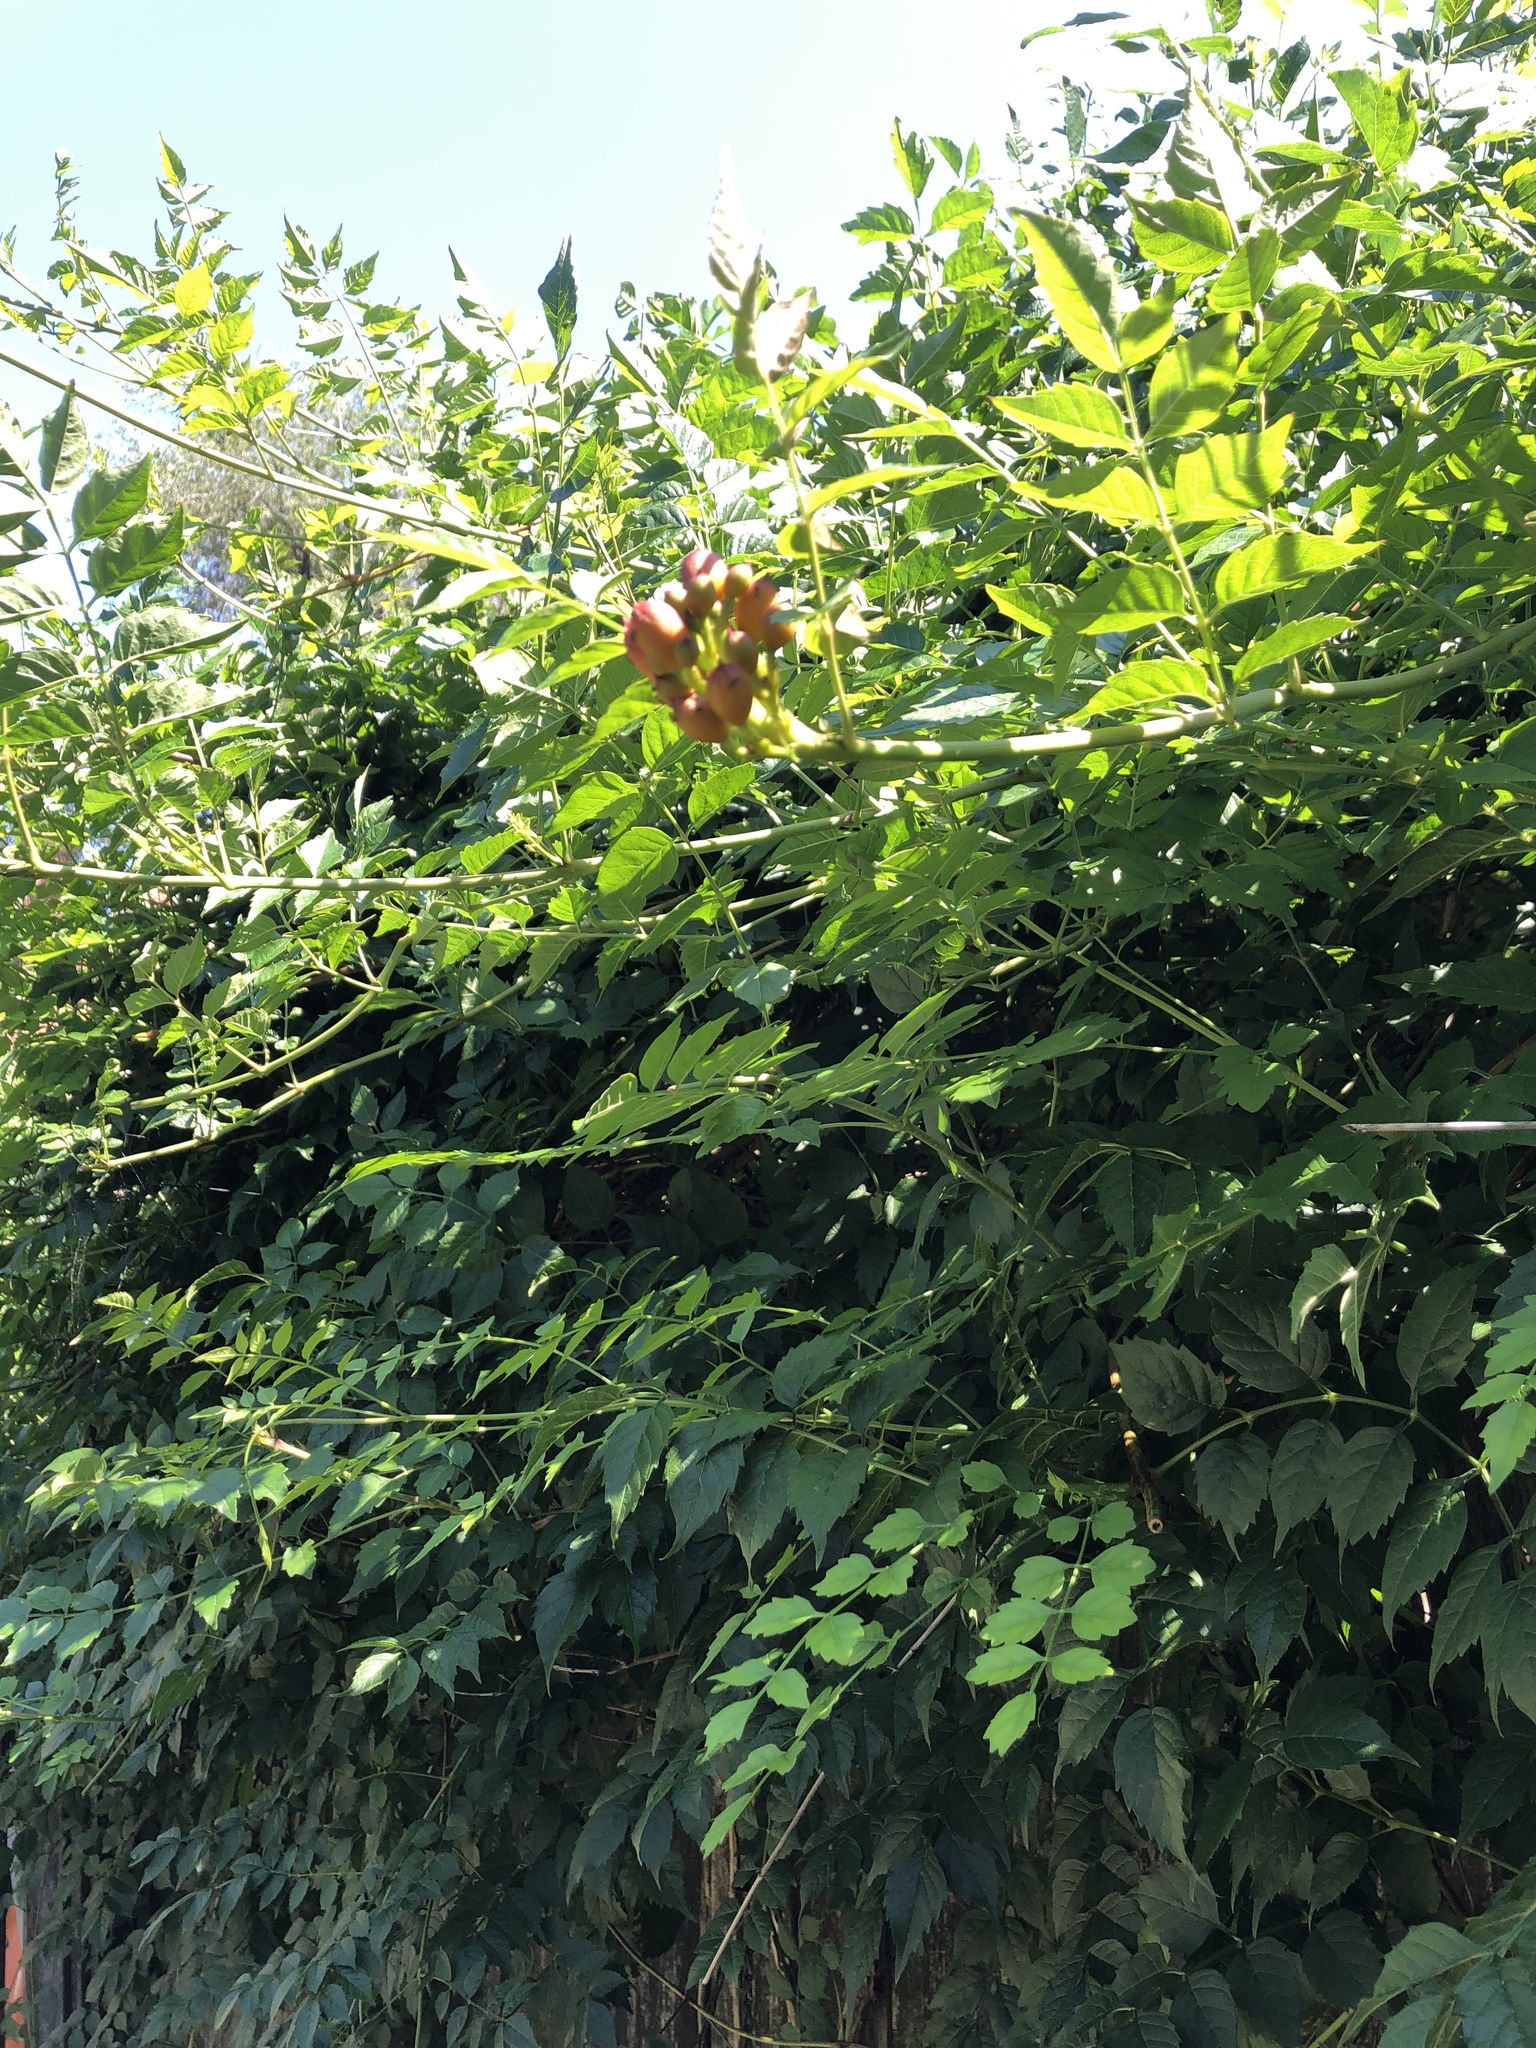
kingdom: Plantae
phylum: Tracheophyta
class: Magnoliopsida
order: Lamiales
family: Bignoniaceae
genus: Campsis
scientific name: Campsis radicans
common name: Trumpet-creeper
